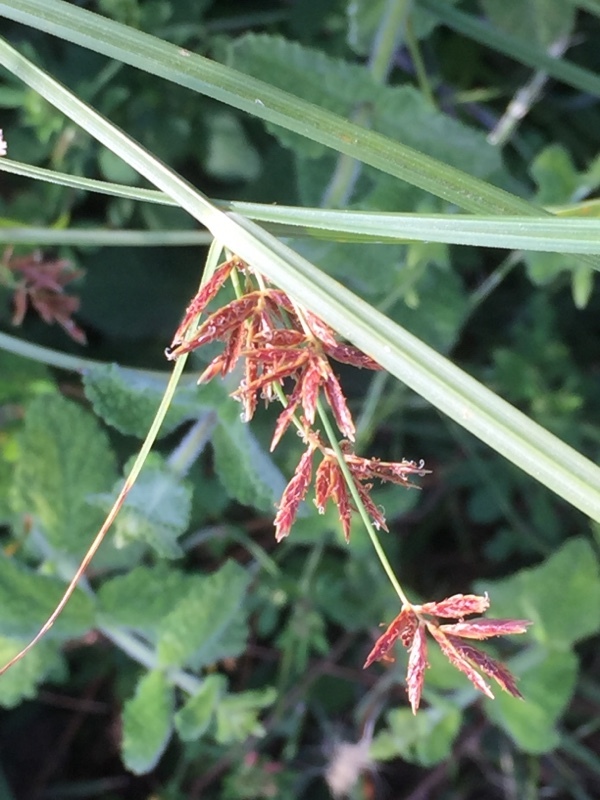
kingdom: Plantae
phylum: Tracheophyta
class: Liliopsida
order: Poales
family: Cyperaceae
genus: Cyperus
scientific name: Cyperus longus
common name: Galingale
